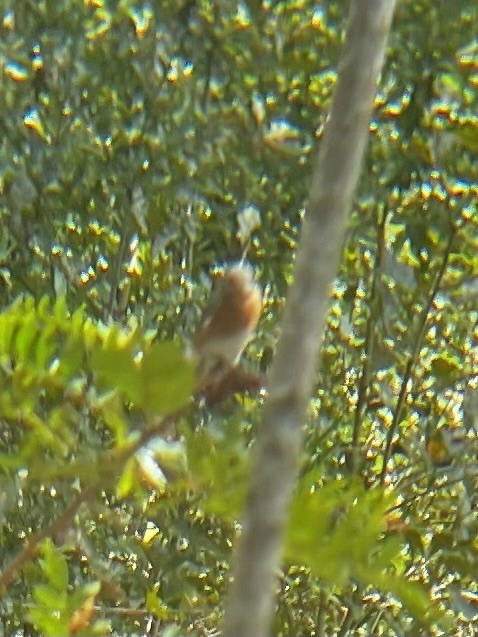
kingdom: Animalia
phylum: Chordata
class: Aves
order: Passeriformes
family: Turdidae
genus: Sialia
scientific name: Sialia sialis
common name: Eastern bluebird
